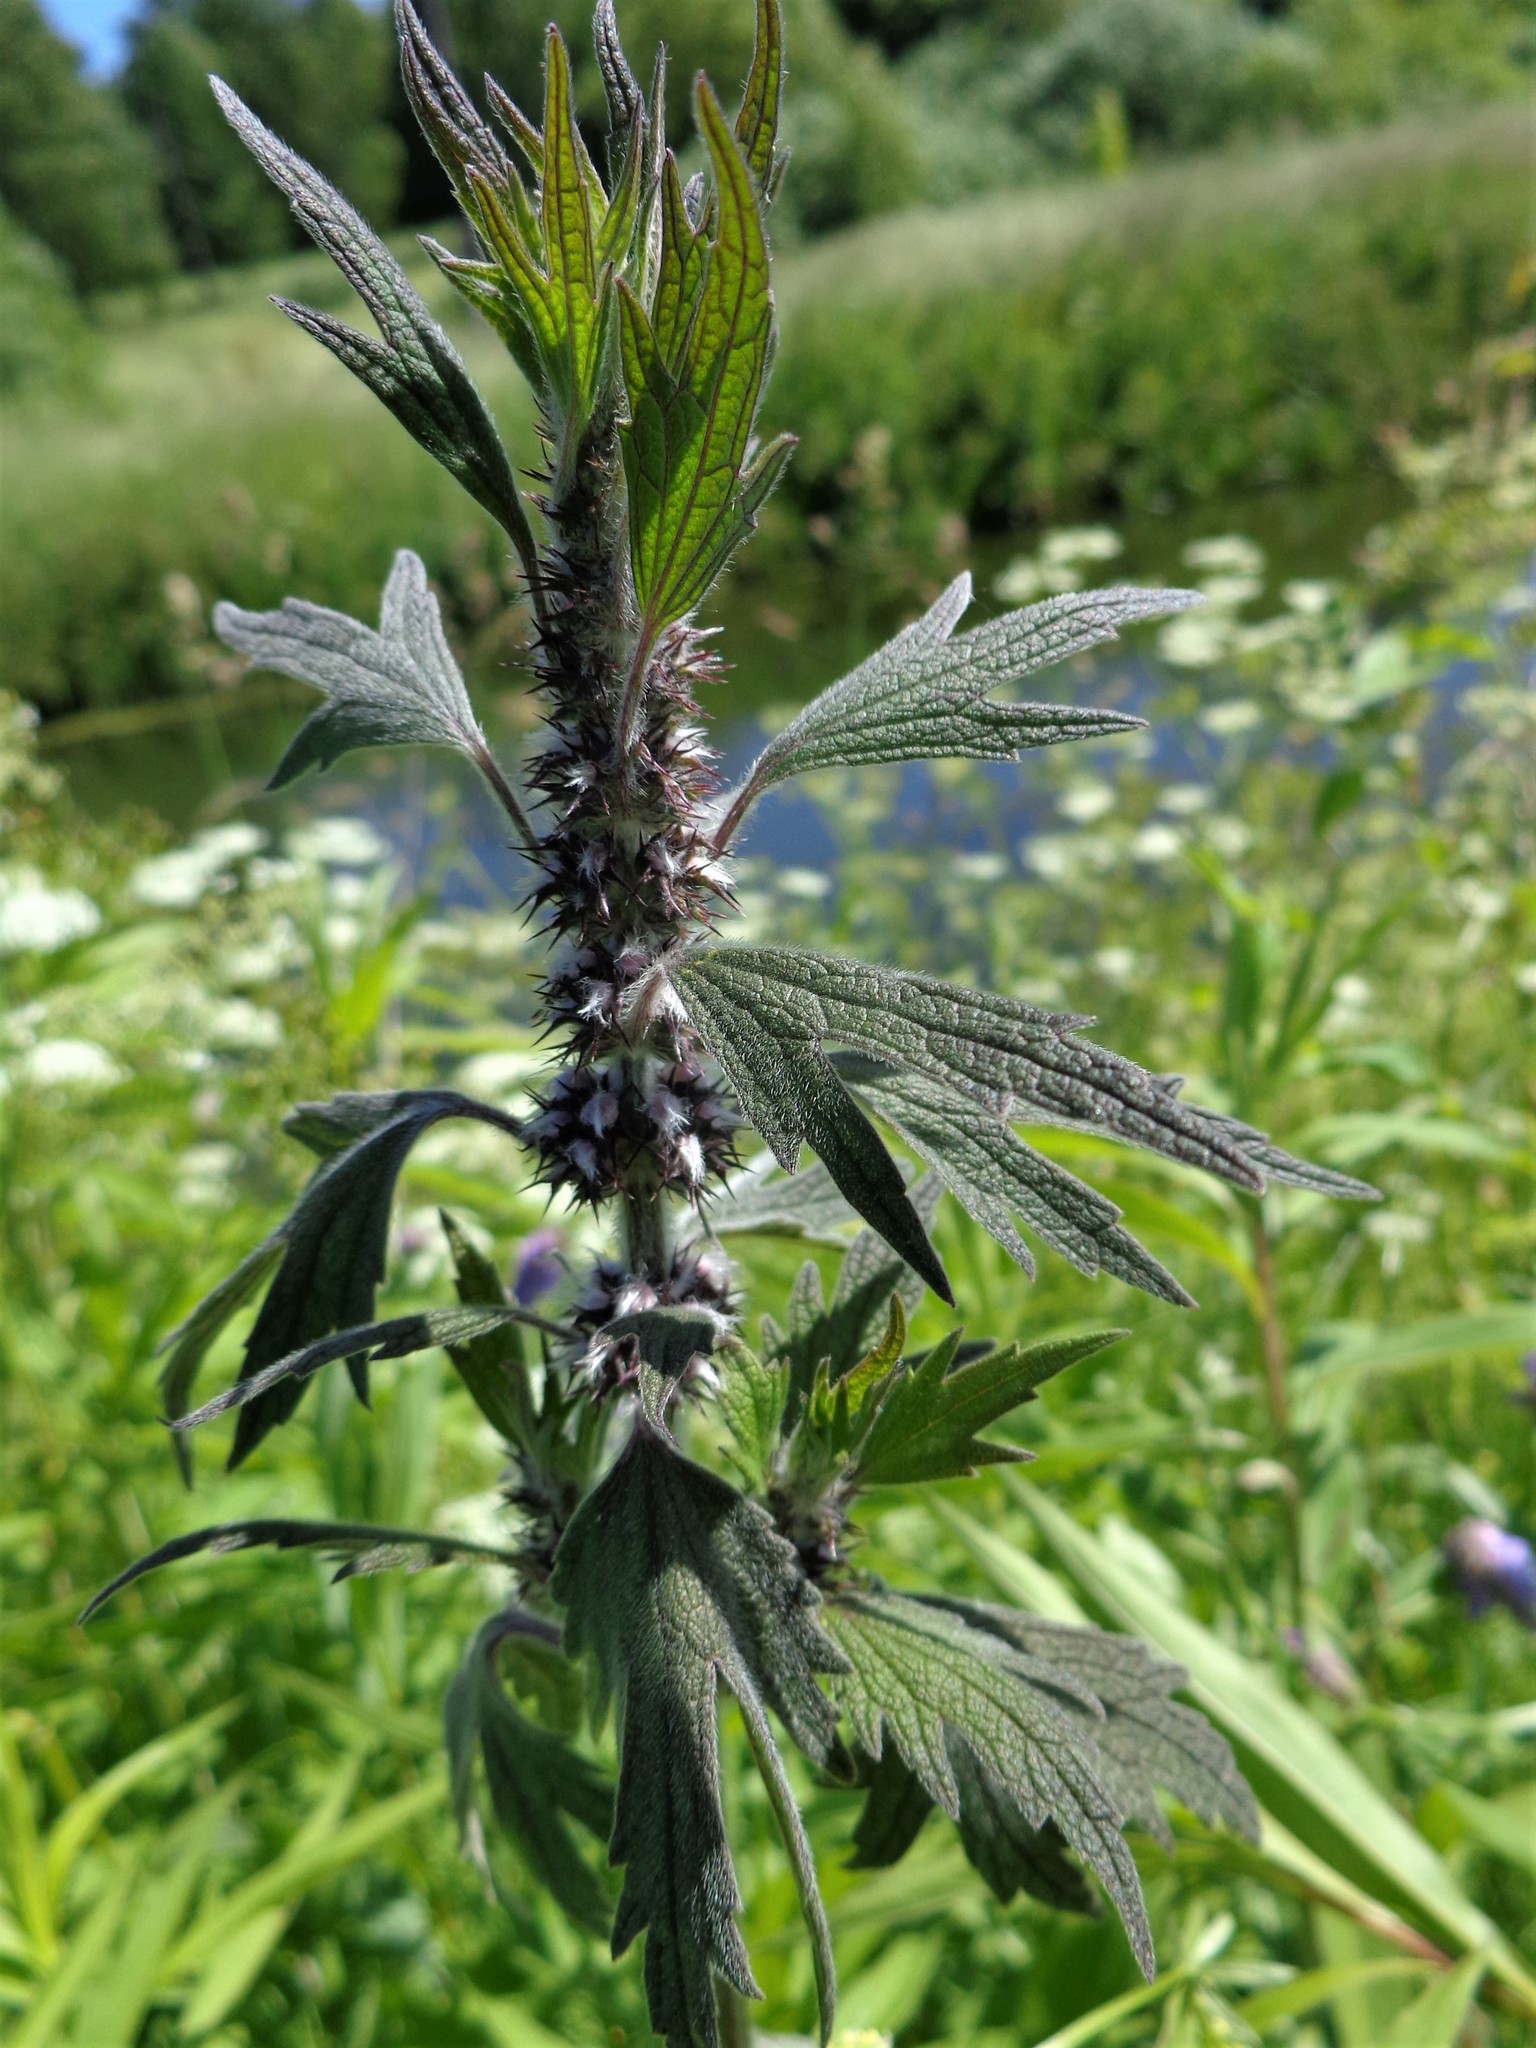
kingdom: Plantae
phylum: Tracheophyta
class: Magnoliopsida
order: Lamiales
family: Lamiaceae
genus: Leonurus
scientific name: Leonurus quinquelobatus
